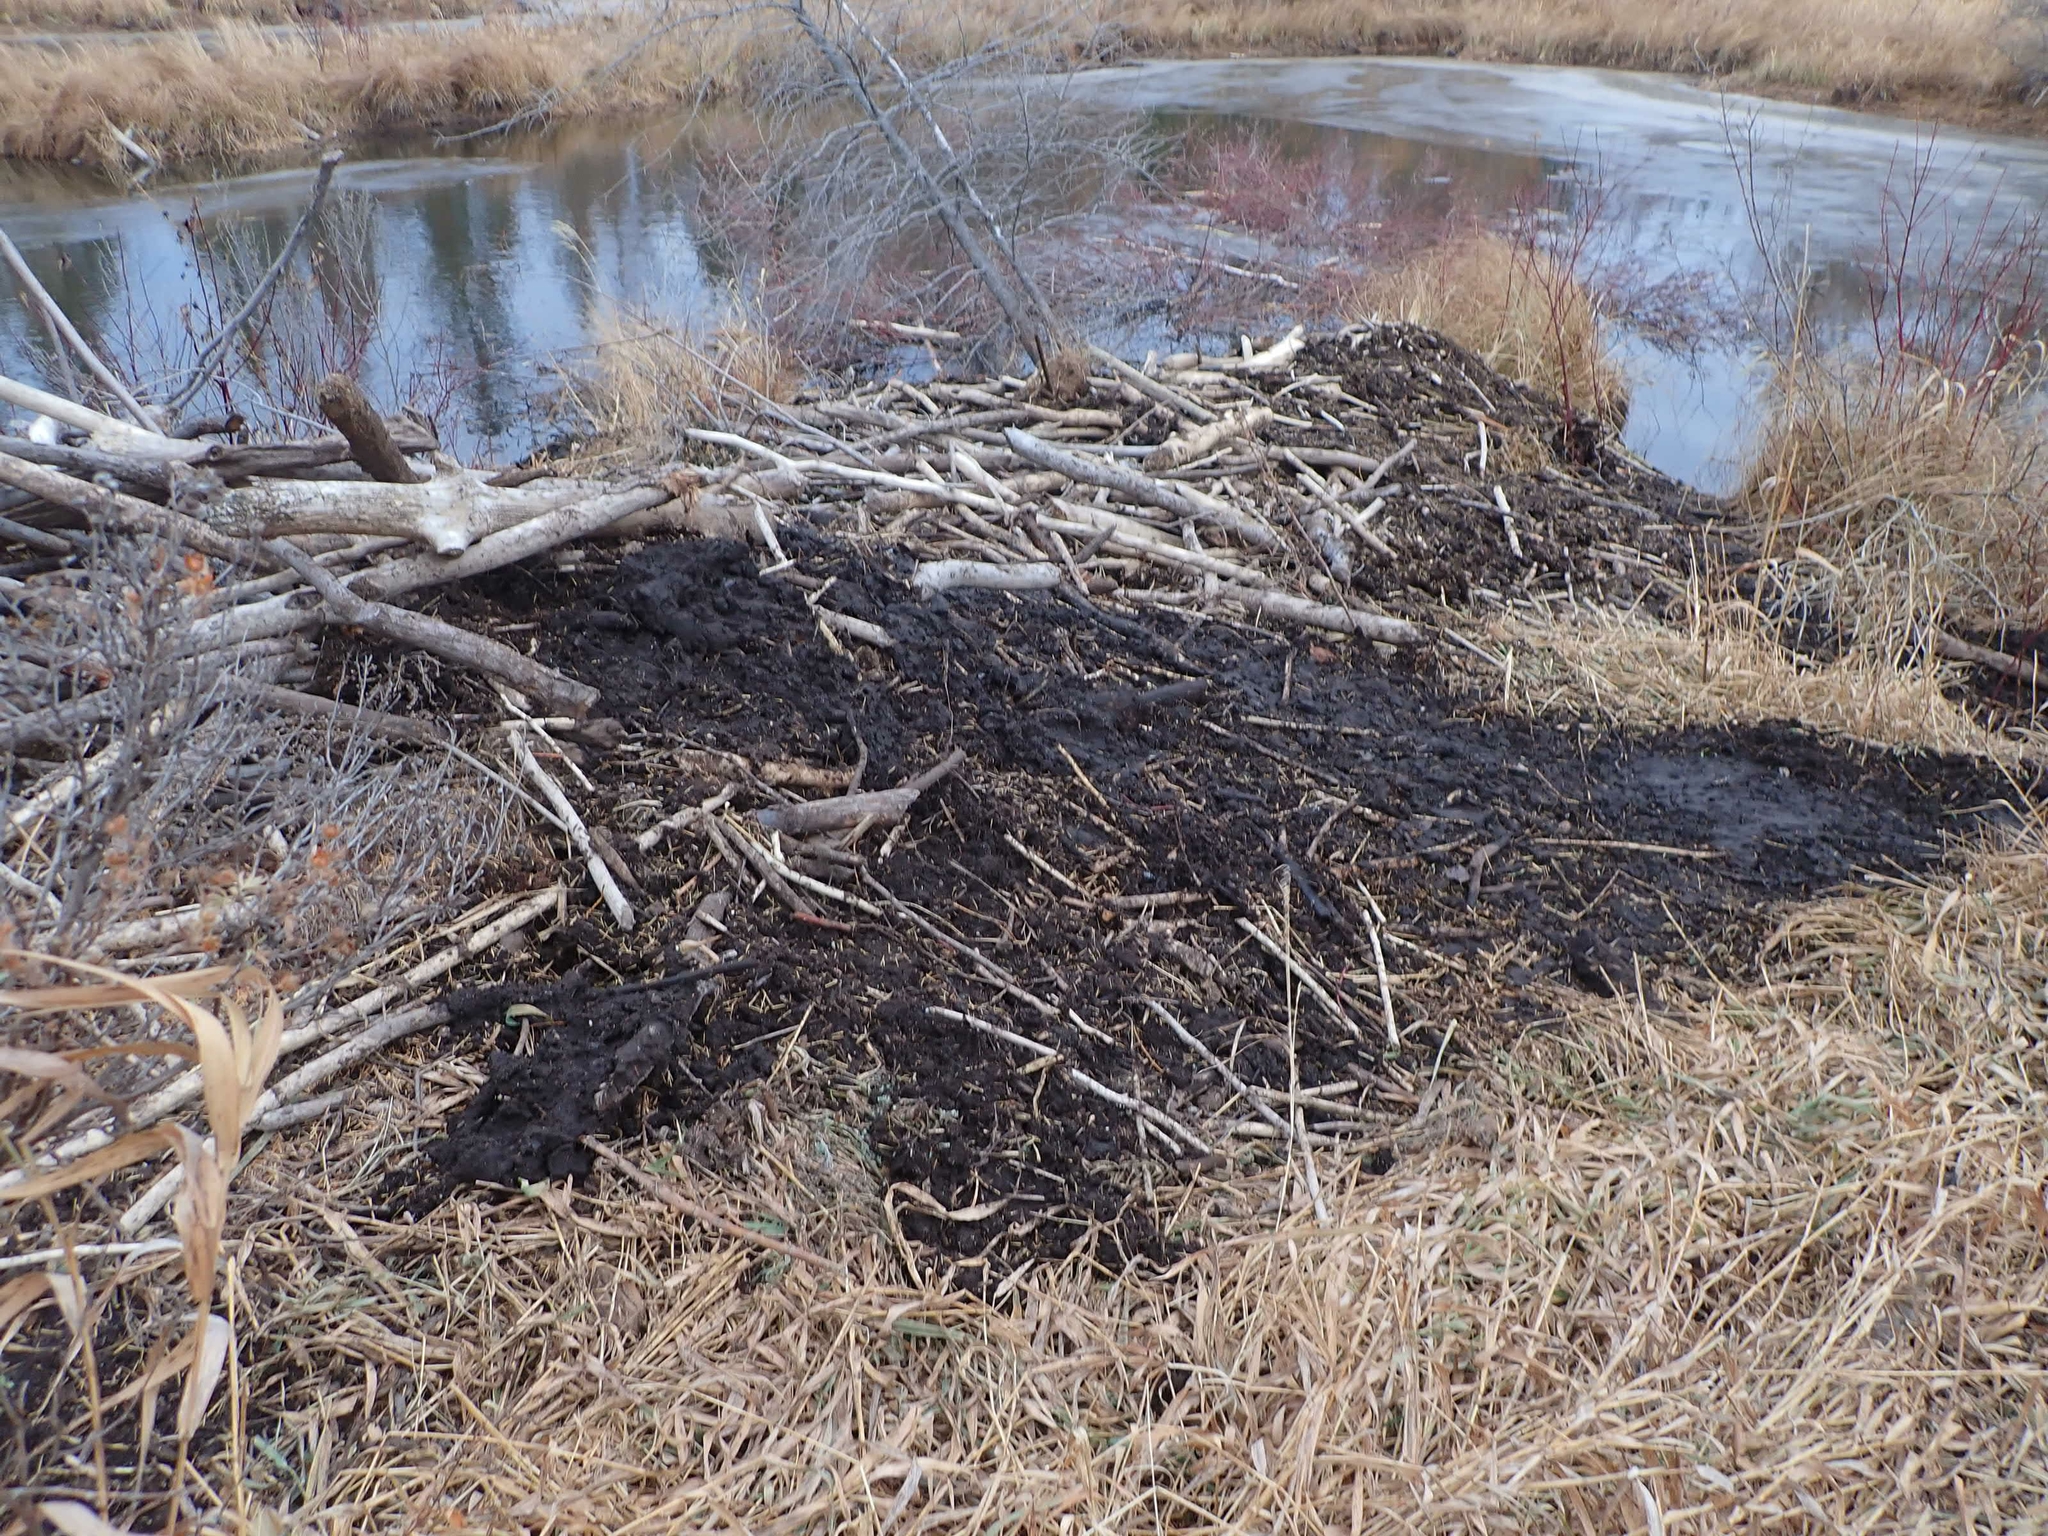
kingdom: Animalia
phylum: Chordata
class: Mammalia
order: Rodentia
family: Castoridae
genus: Castor
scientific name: Castor canadensis
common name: American beaver
